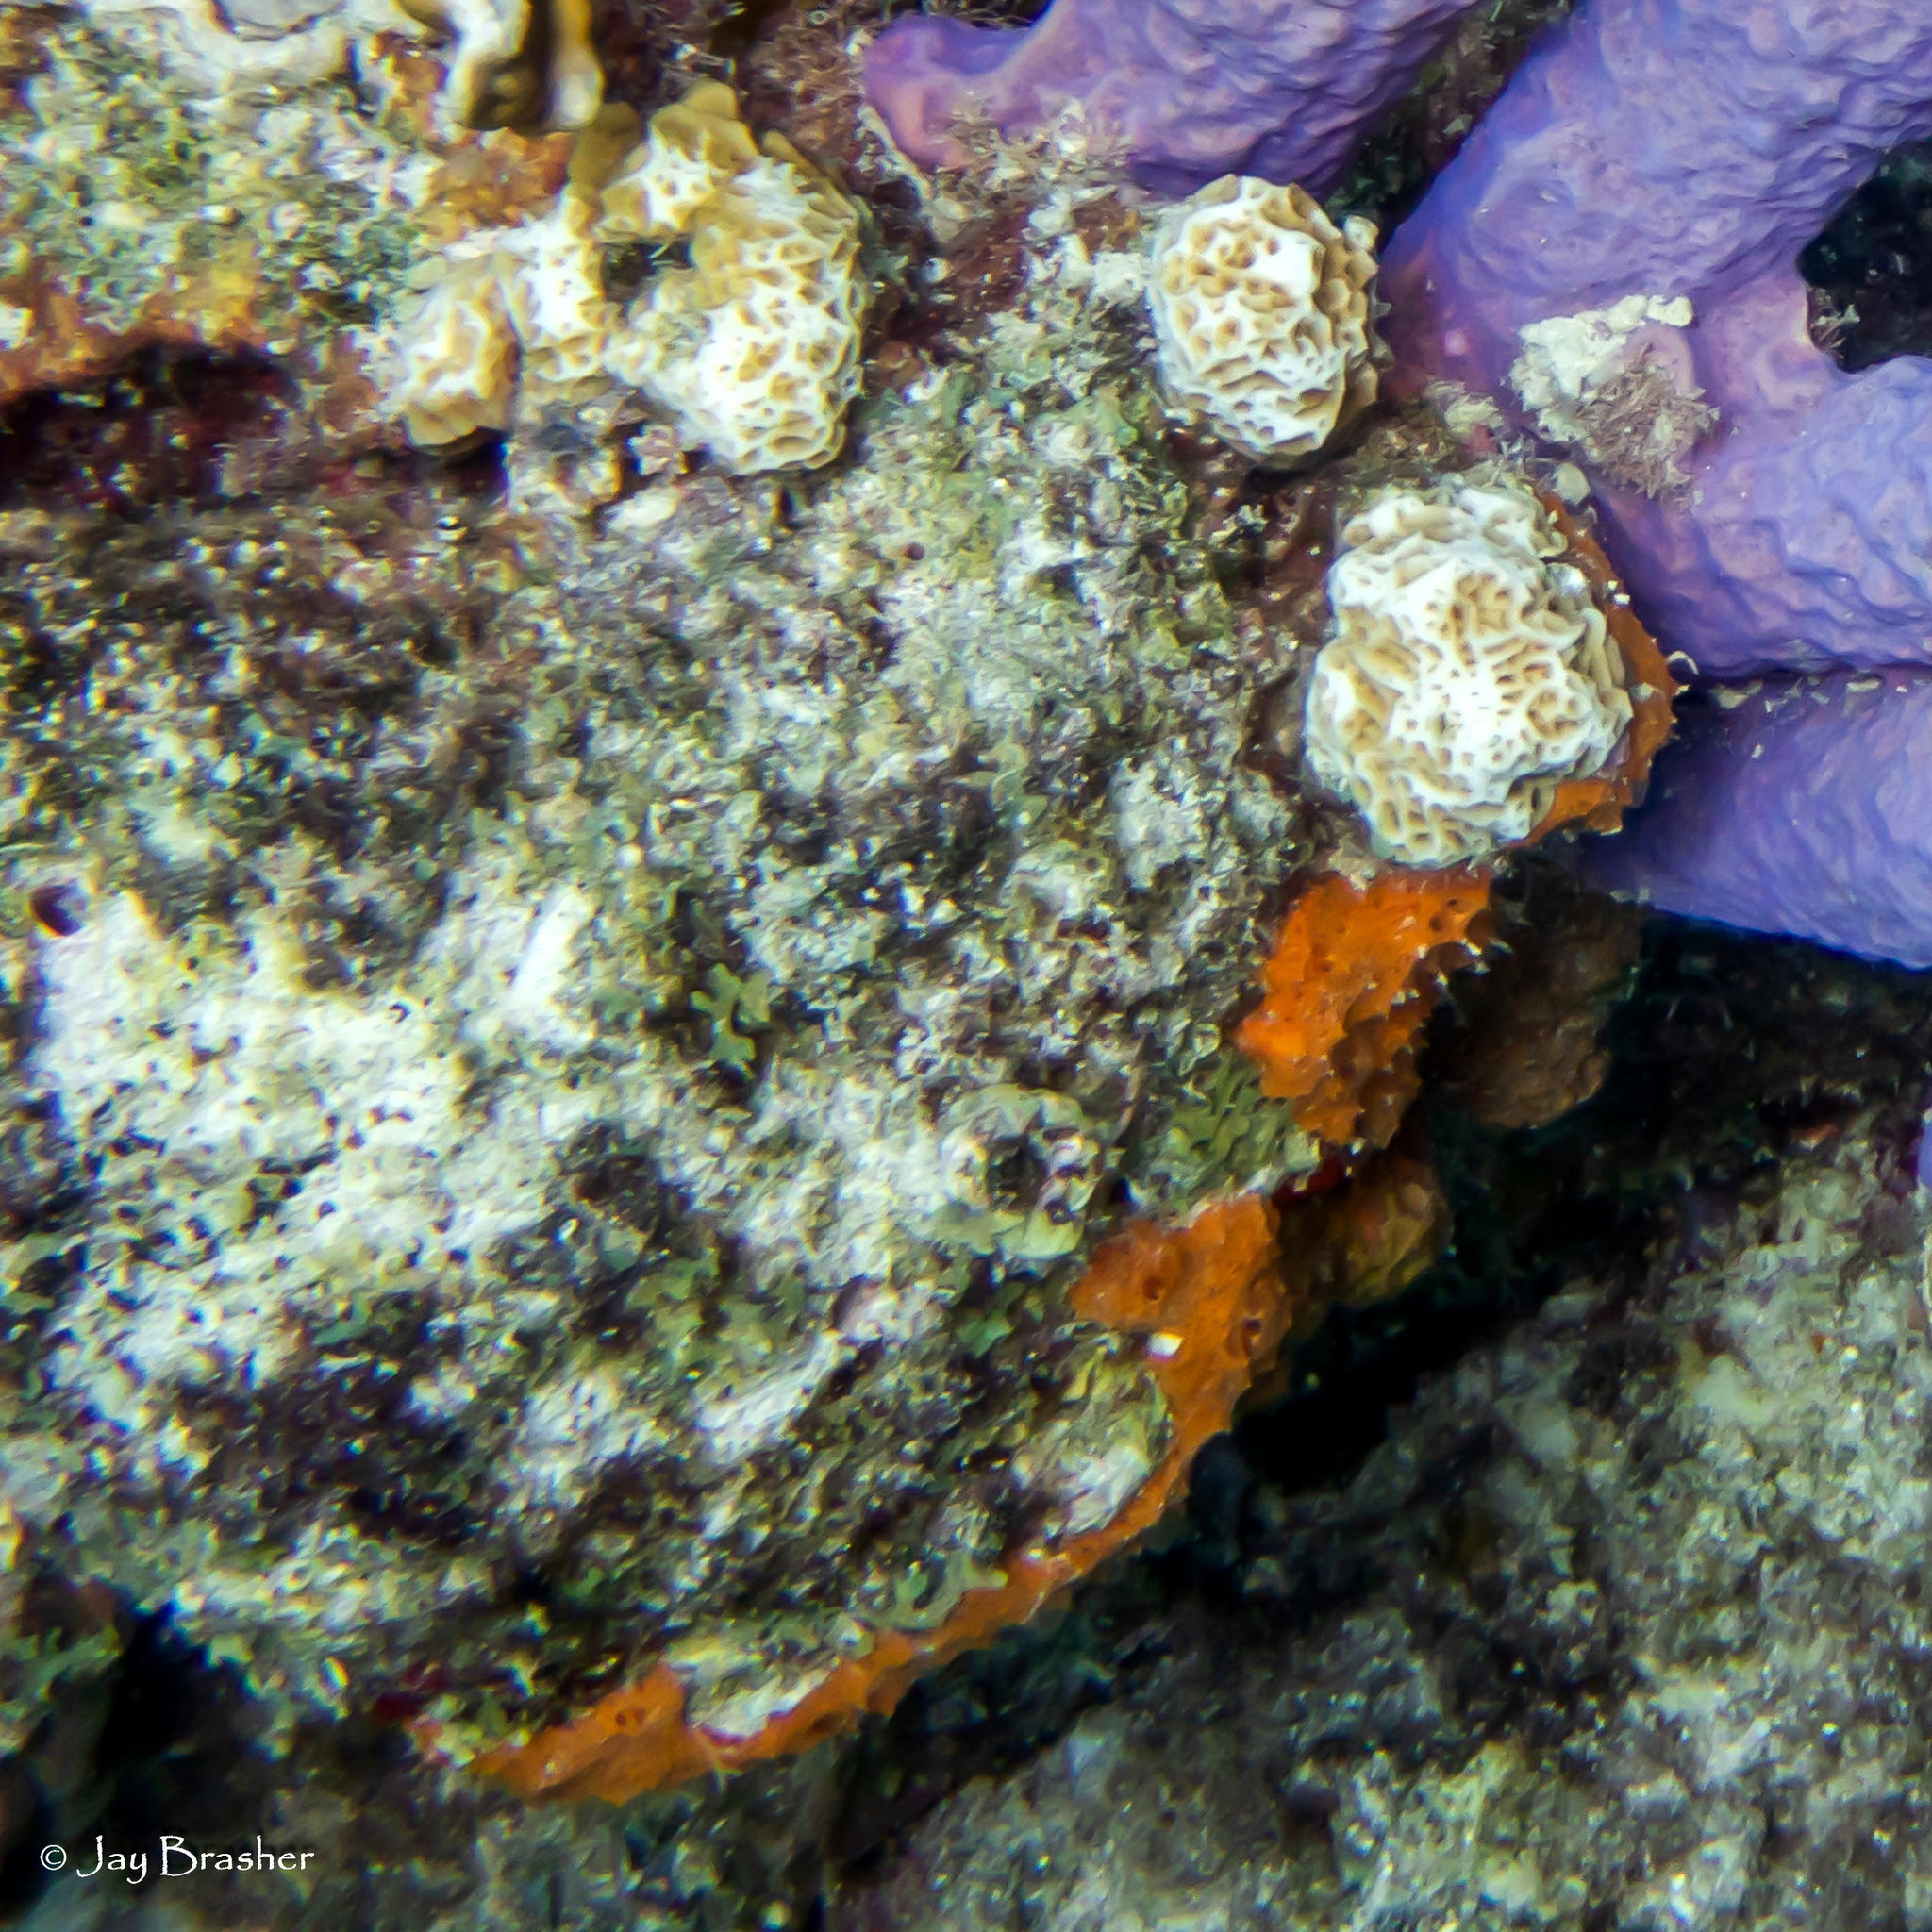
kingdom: Animalia
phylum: Porifera
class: Demospongiae
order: Scopalinida
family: Scopalinidae
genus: Scopalina
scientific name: Scopalina ruetzleri
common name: Orange lumpy encrusting sponge
